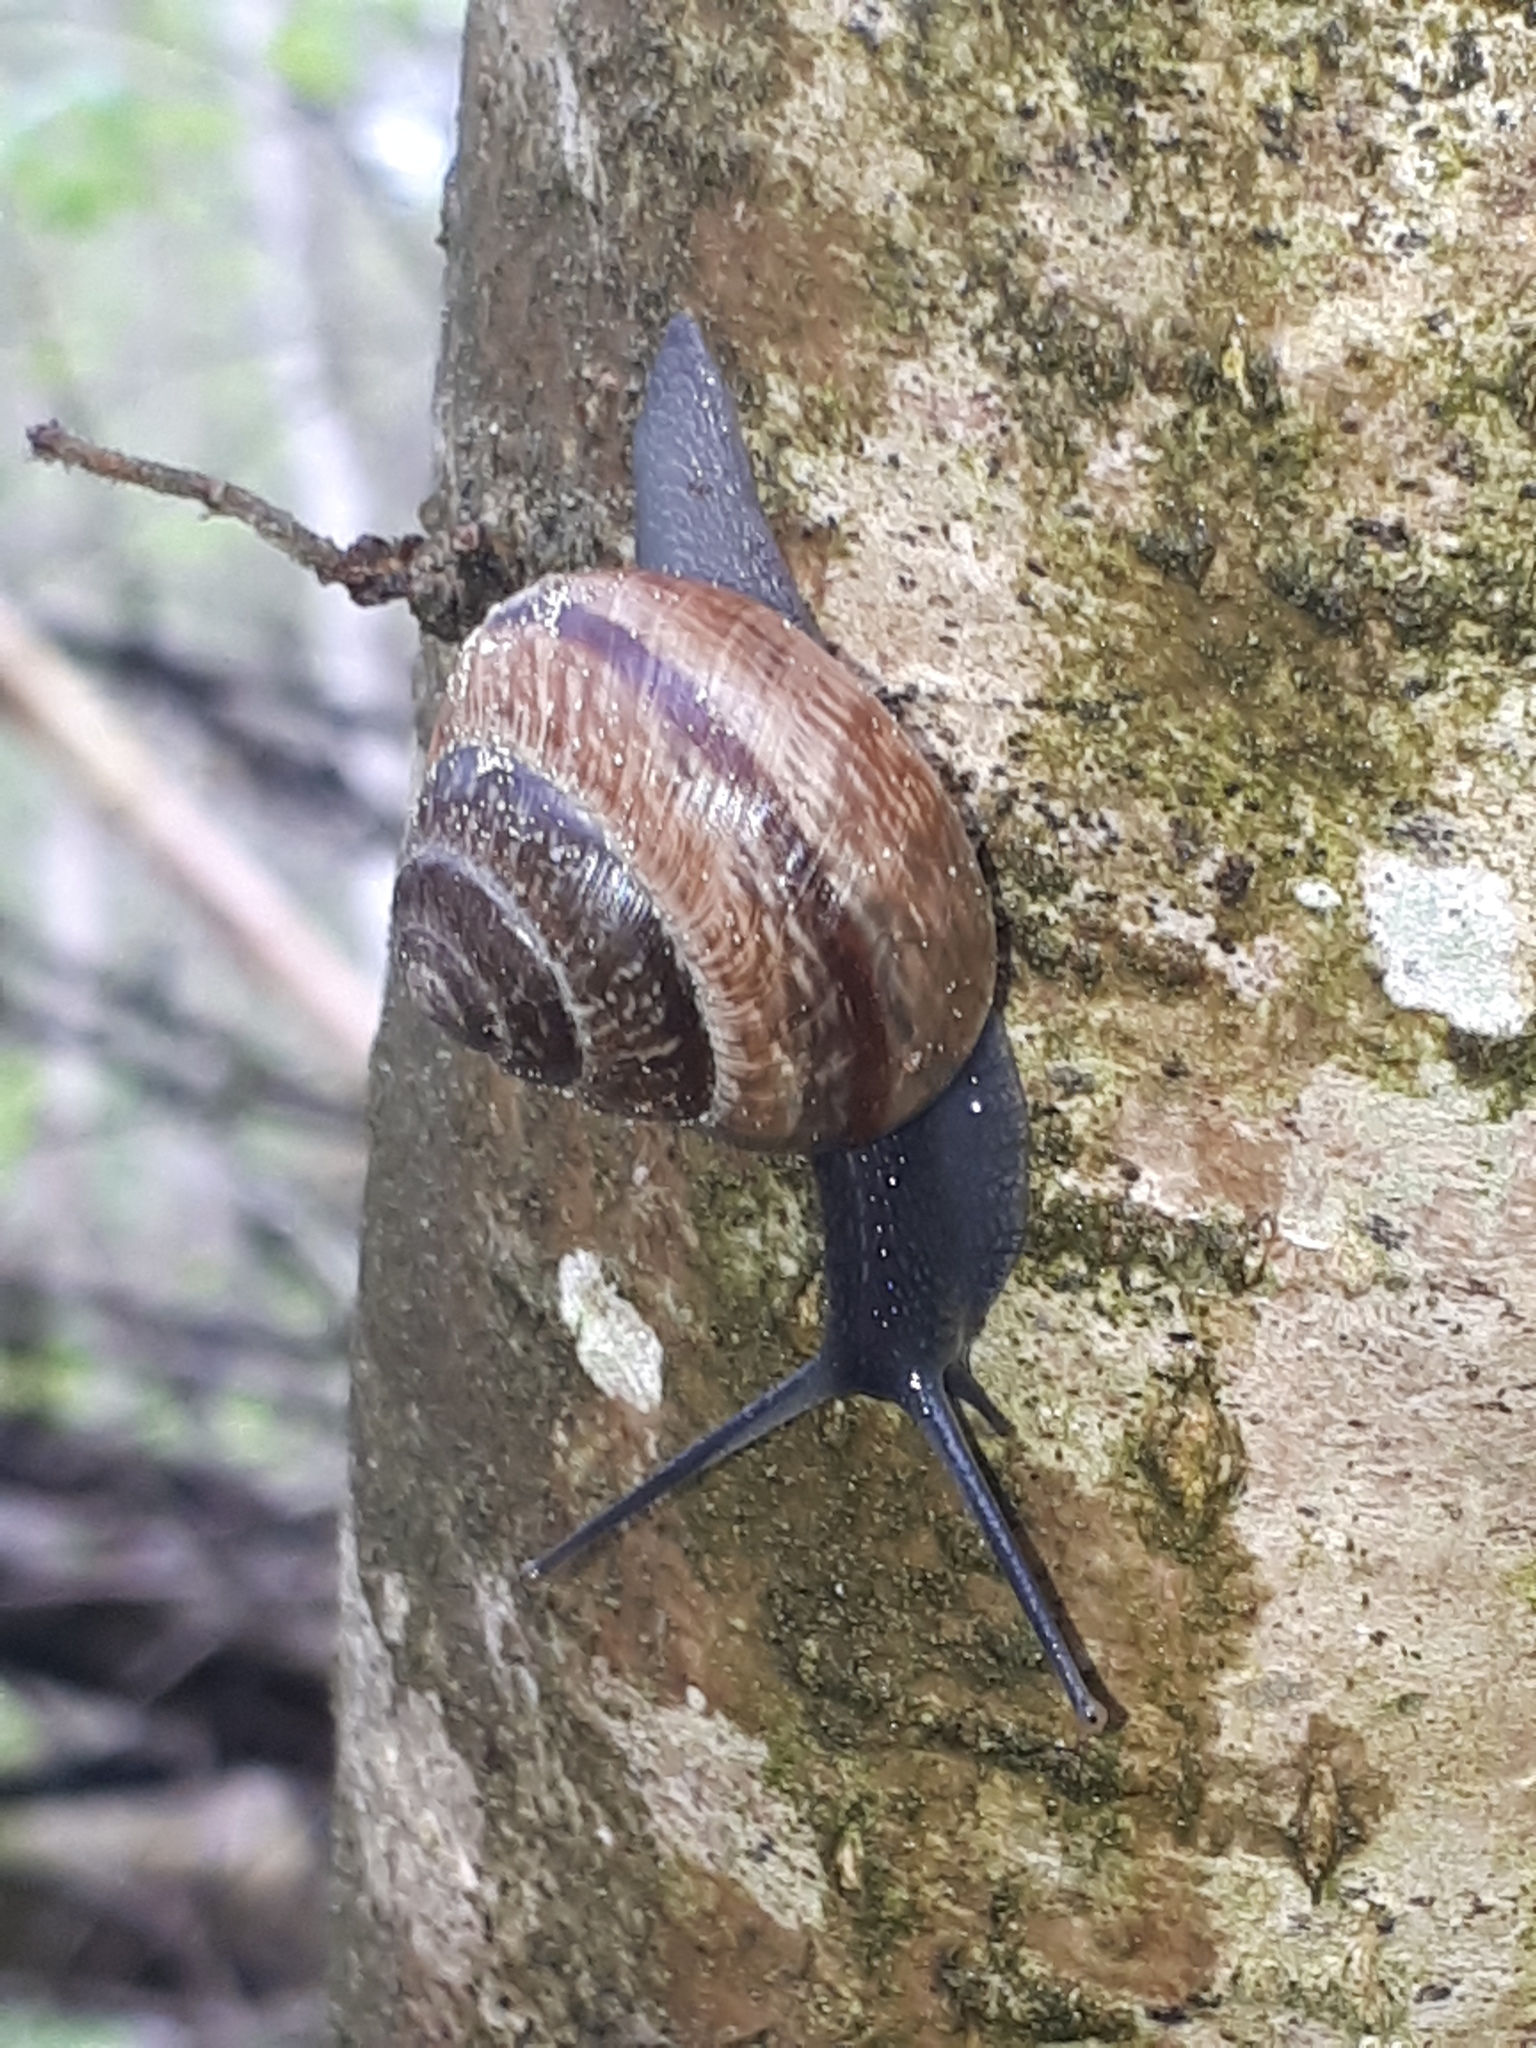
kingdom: Animalia
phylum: Mollusca
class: Gastropoda
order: Stylommatophora
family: Helicidae
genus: Arianta
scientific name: Arianta arbustorum
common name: Copse snail
